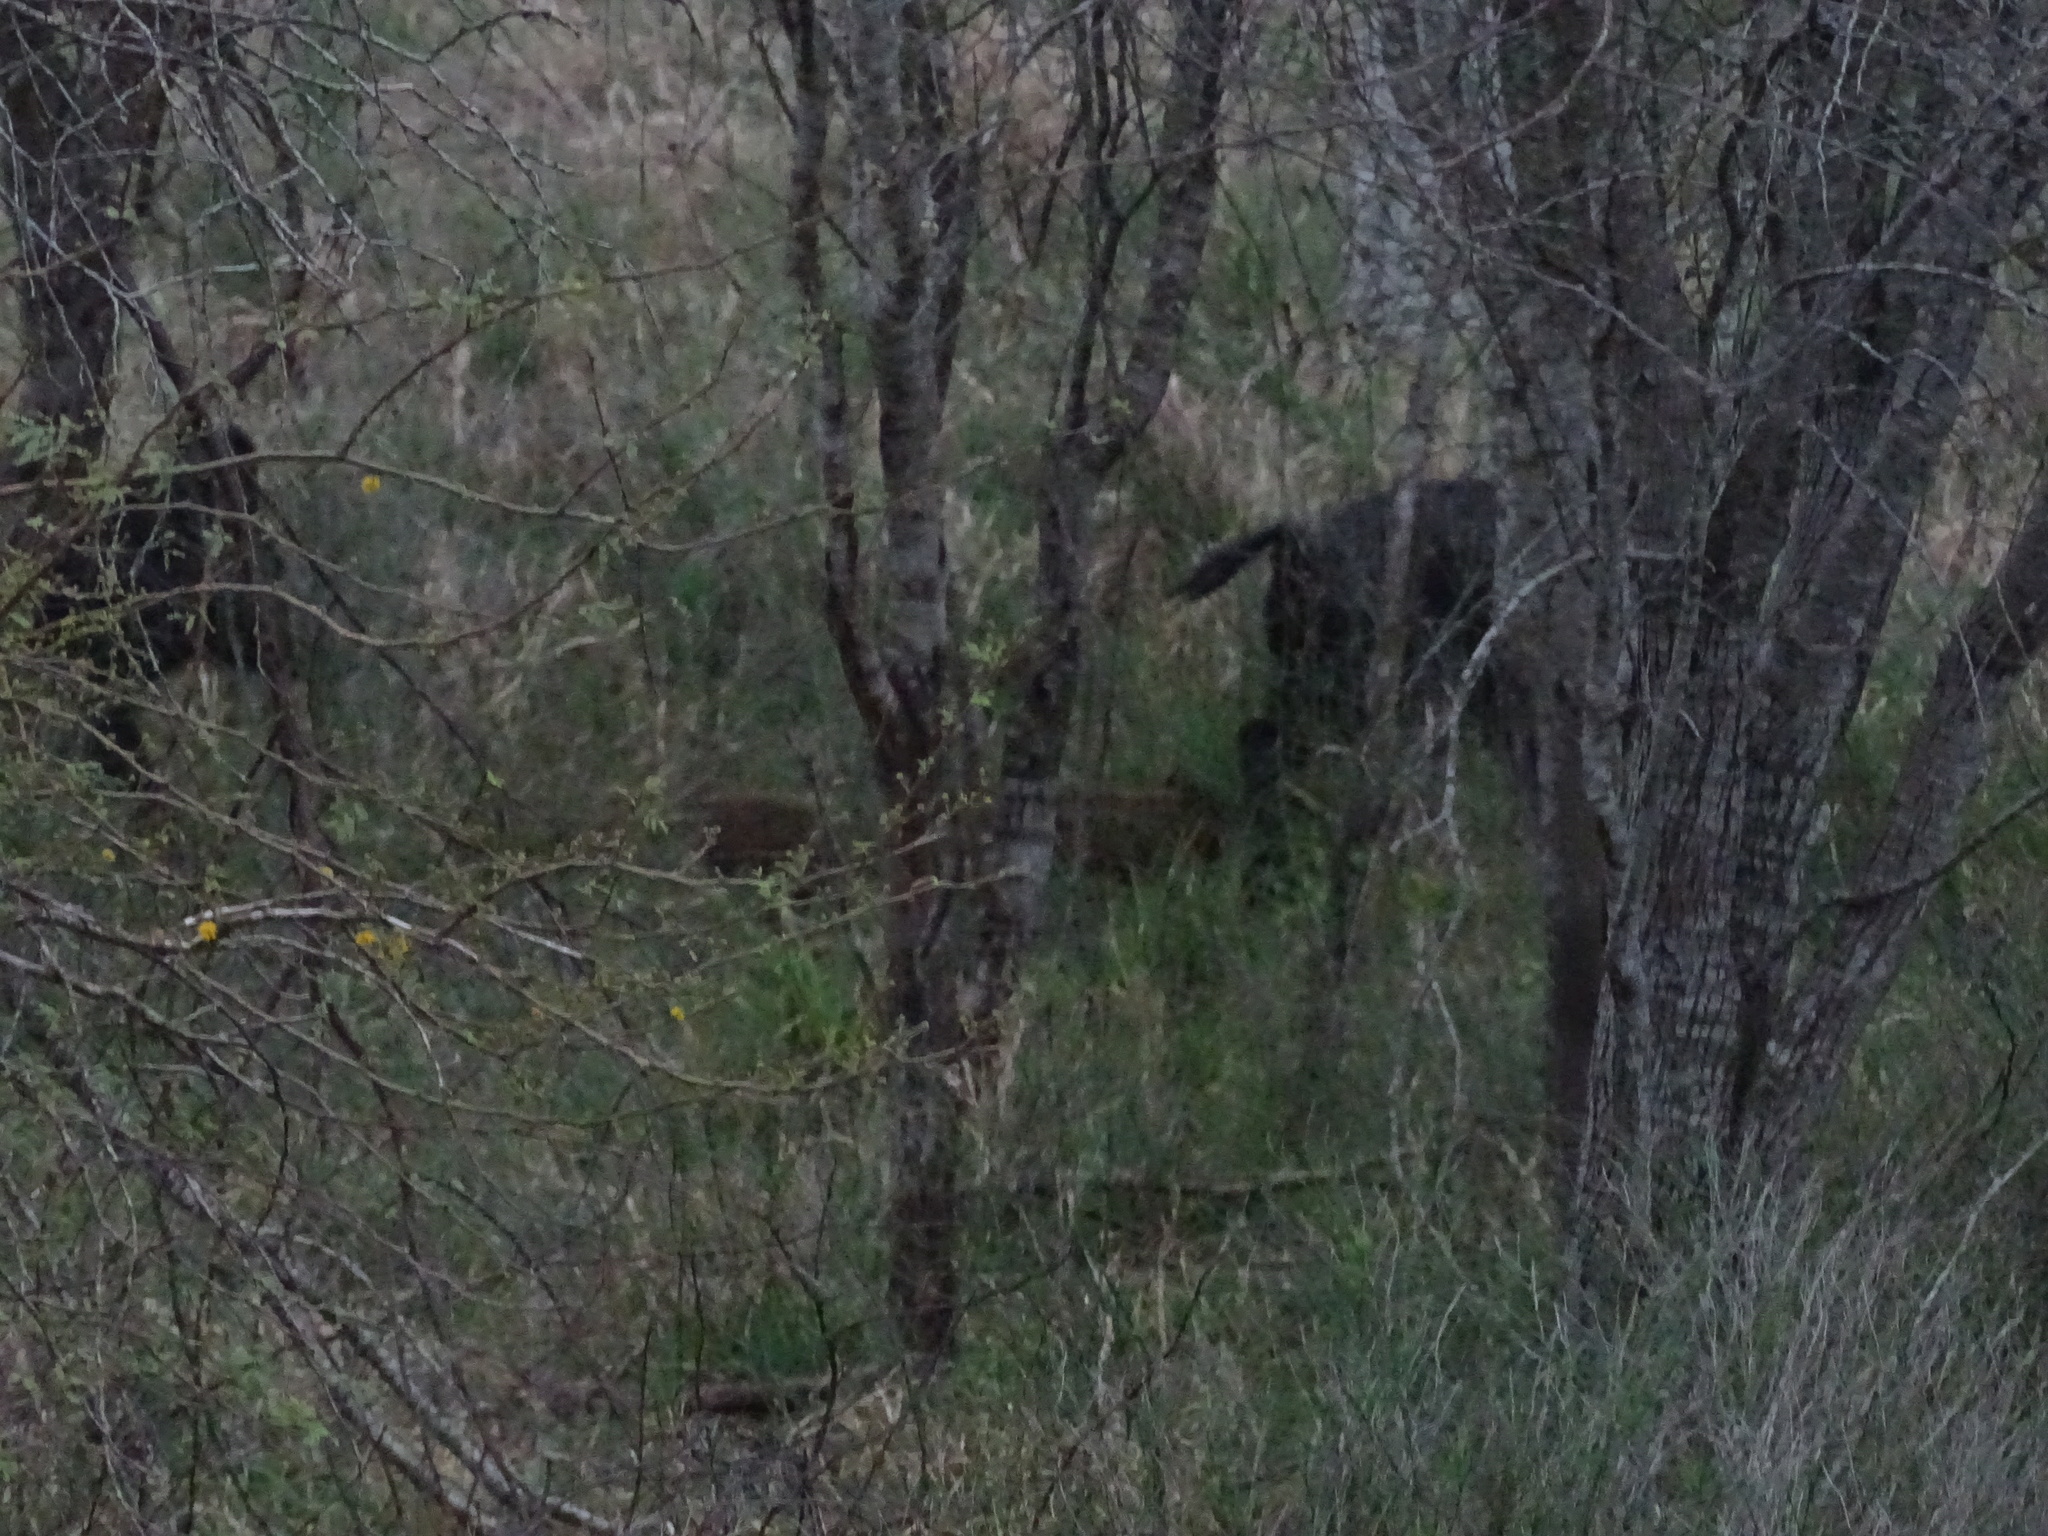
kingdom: Animalia
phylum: Chordata
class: Mammalia
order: Artiodactyla
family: Suidae
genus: Sus
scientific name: Sus scrofa
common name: Wild boar
